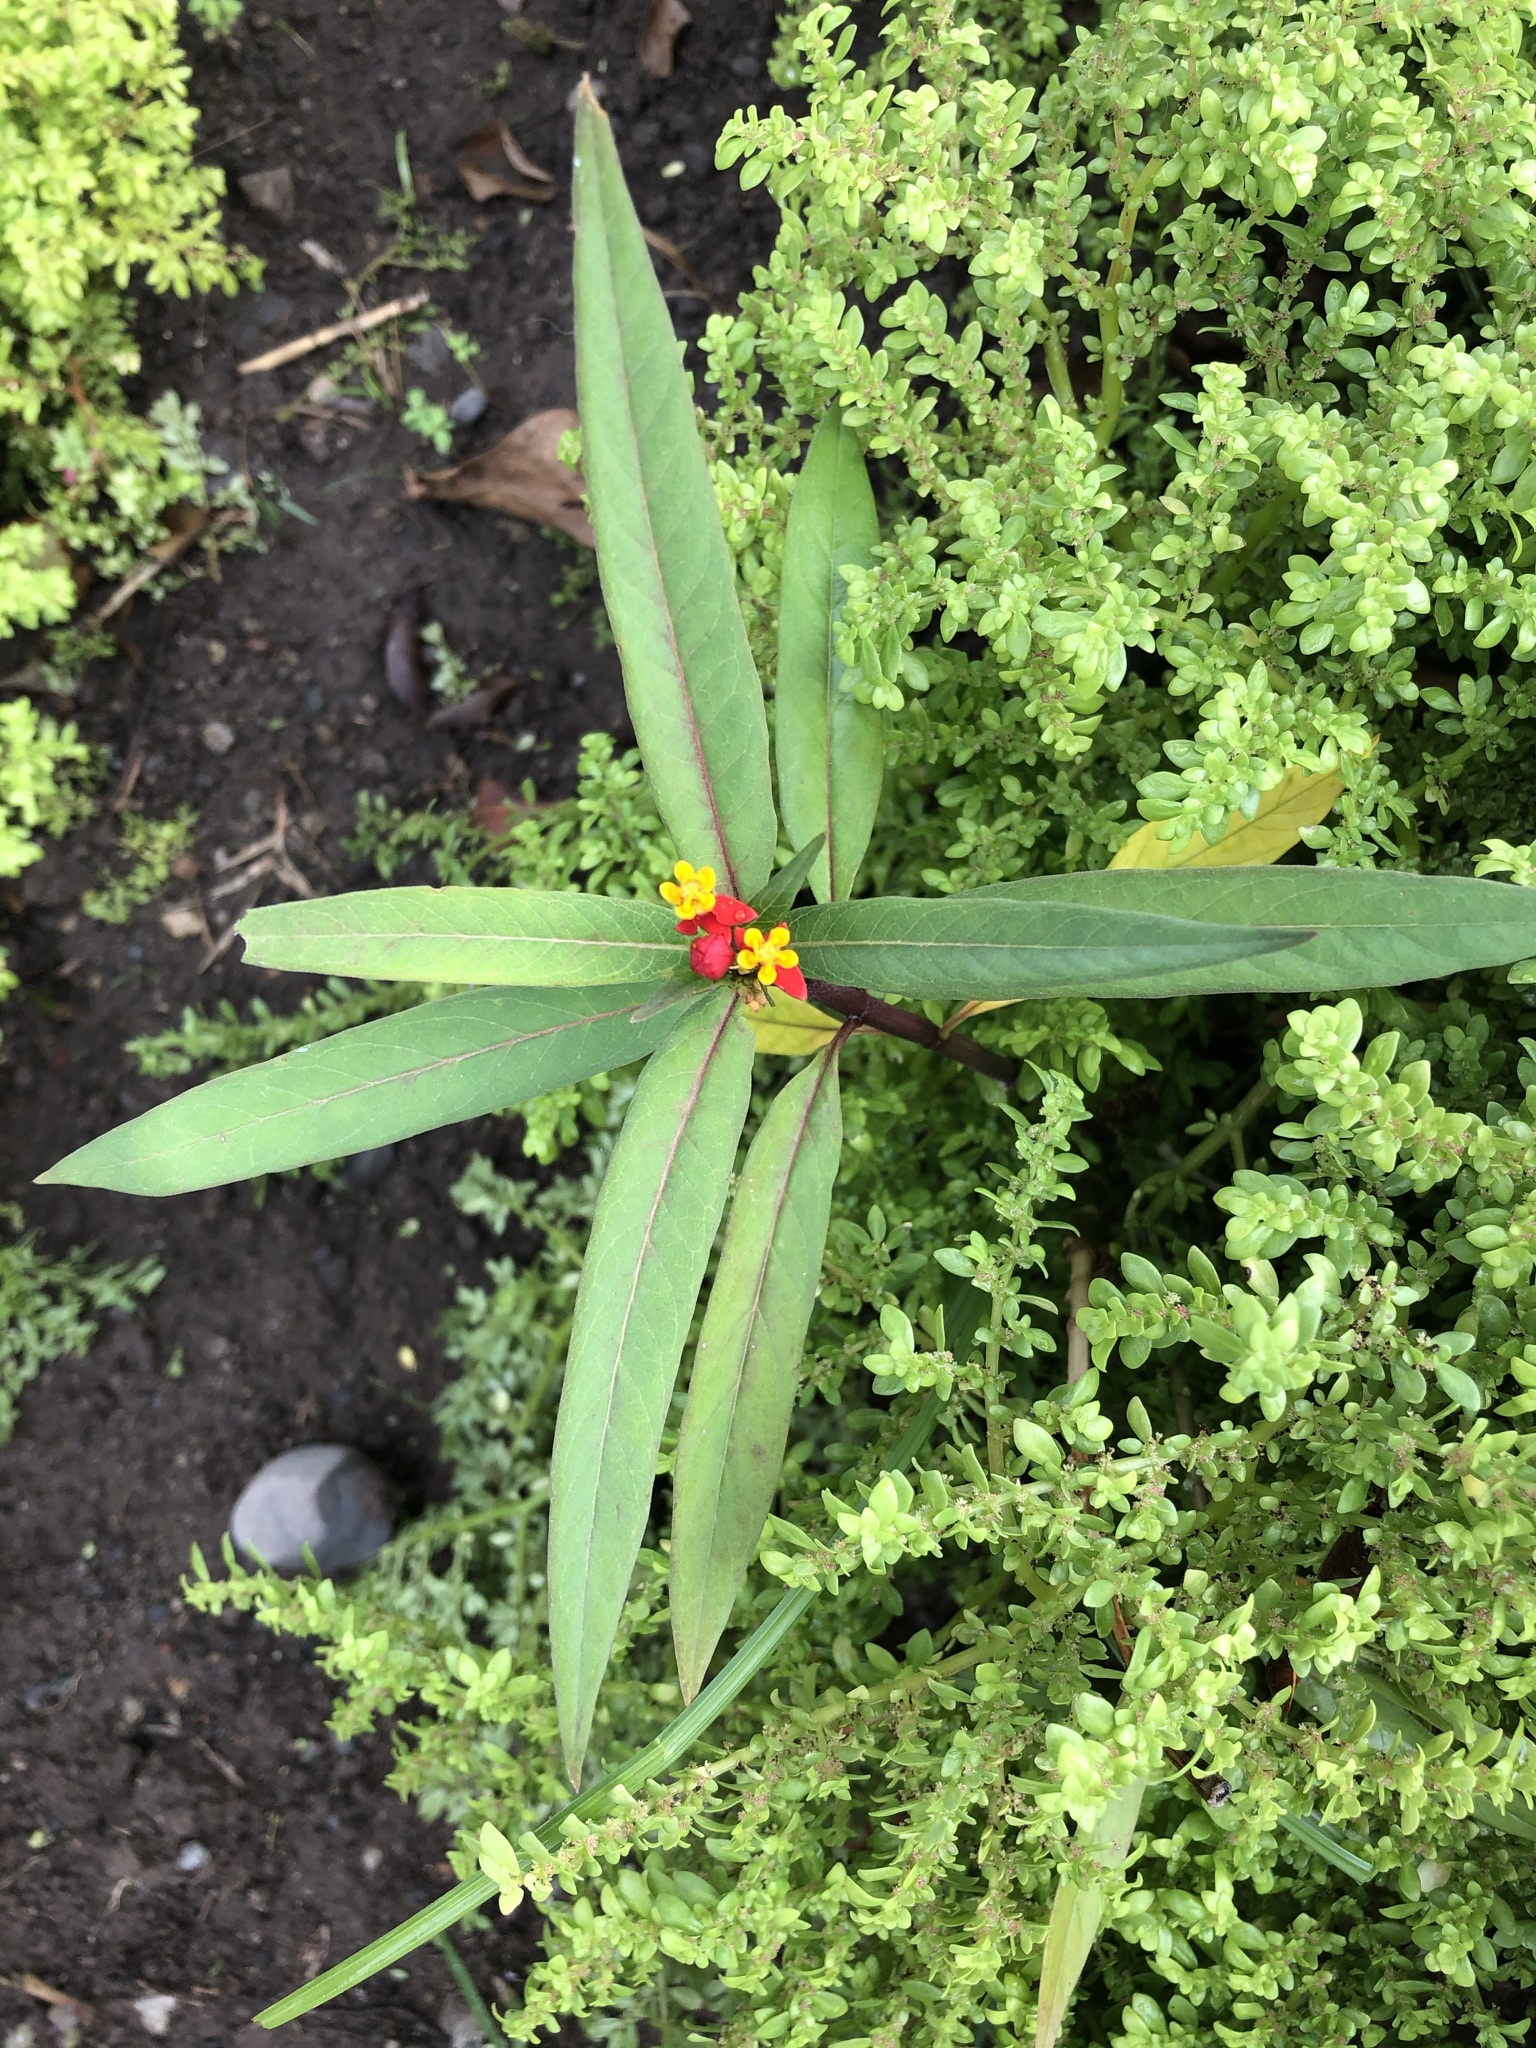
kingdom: Plantae
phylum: Tracheophyta
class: Magnoliopsida
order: Gentianales
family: Apocynaceae
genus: Asclepias
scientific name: Asclepias curassavica
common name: Bloodflower
